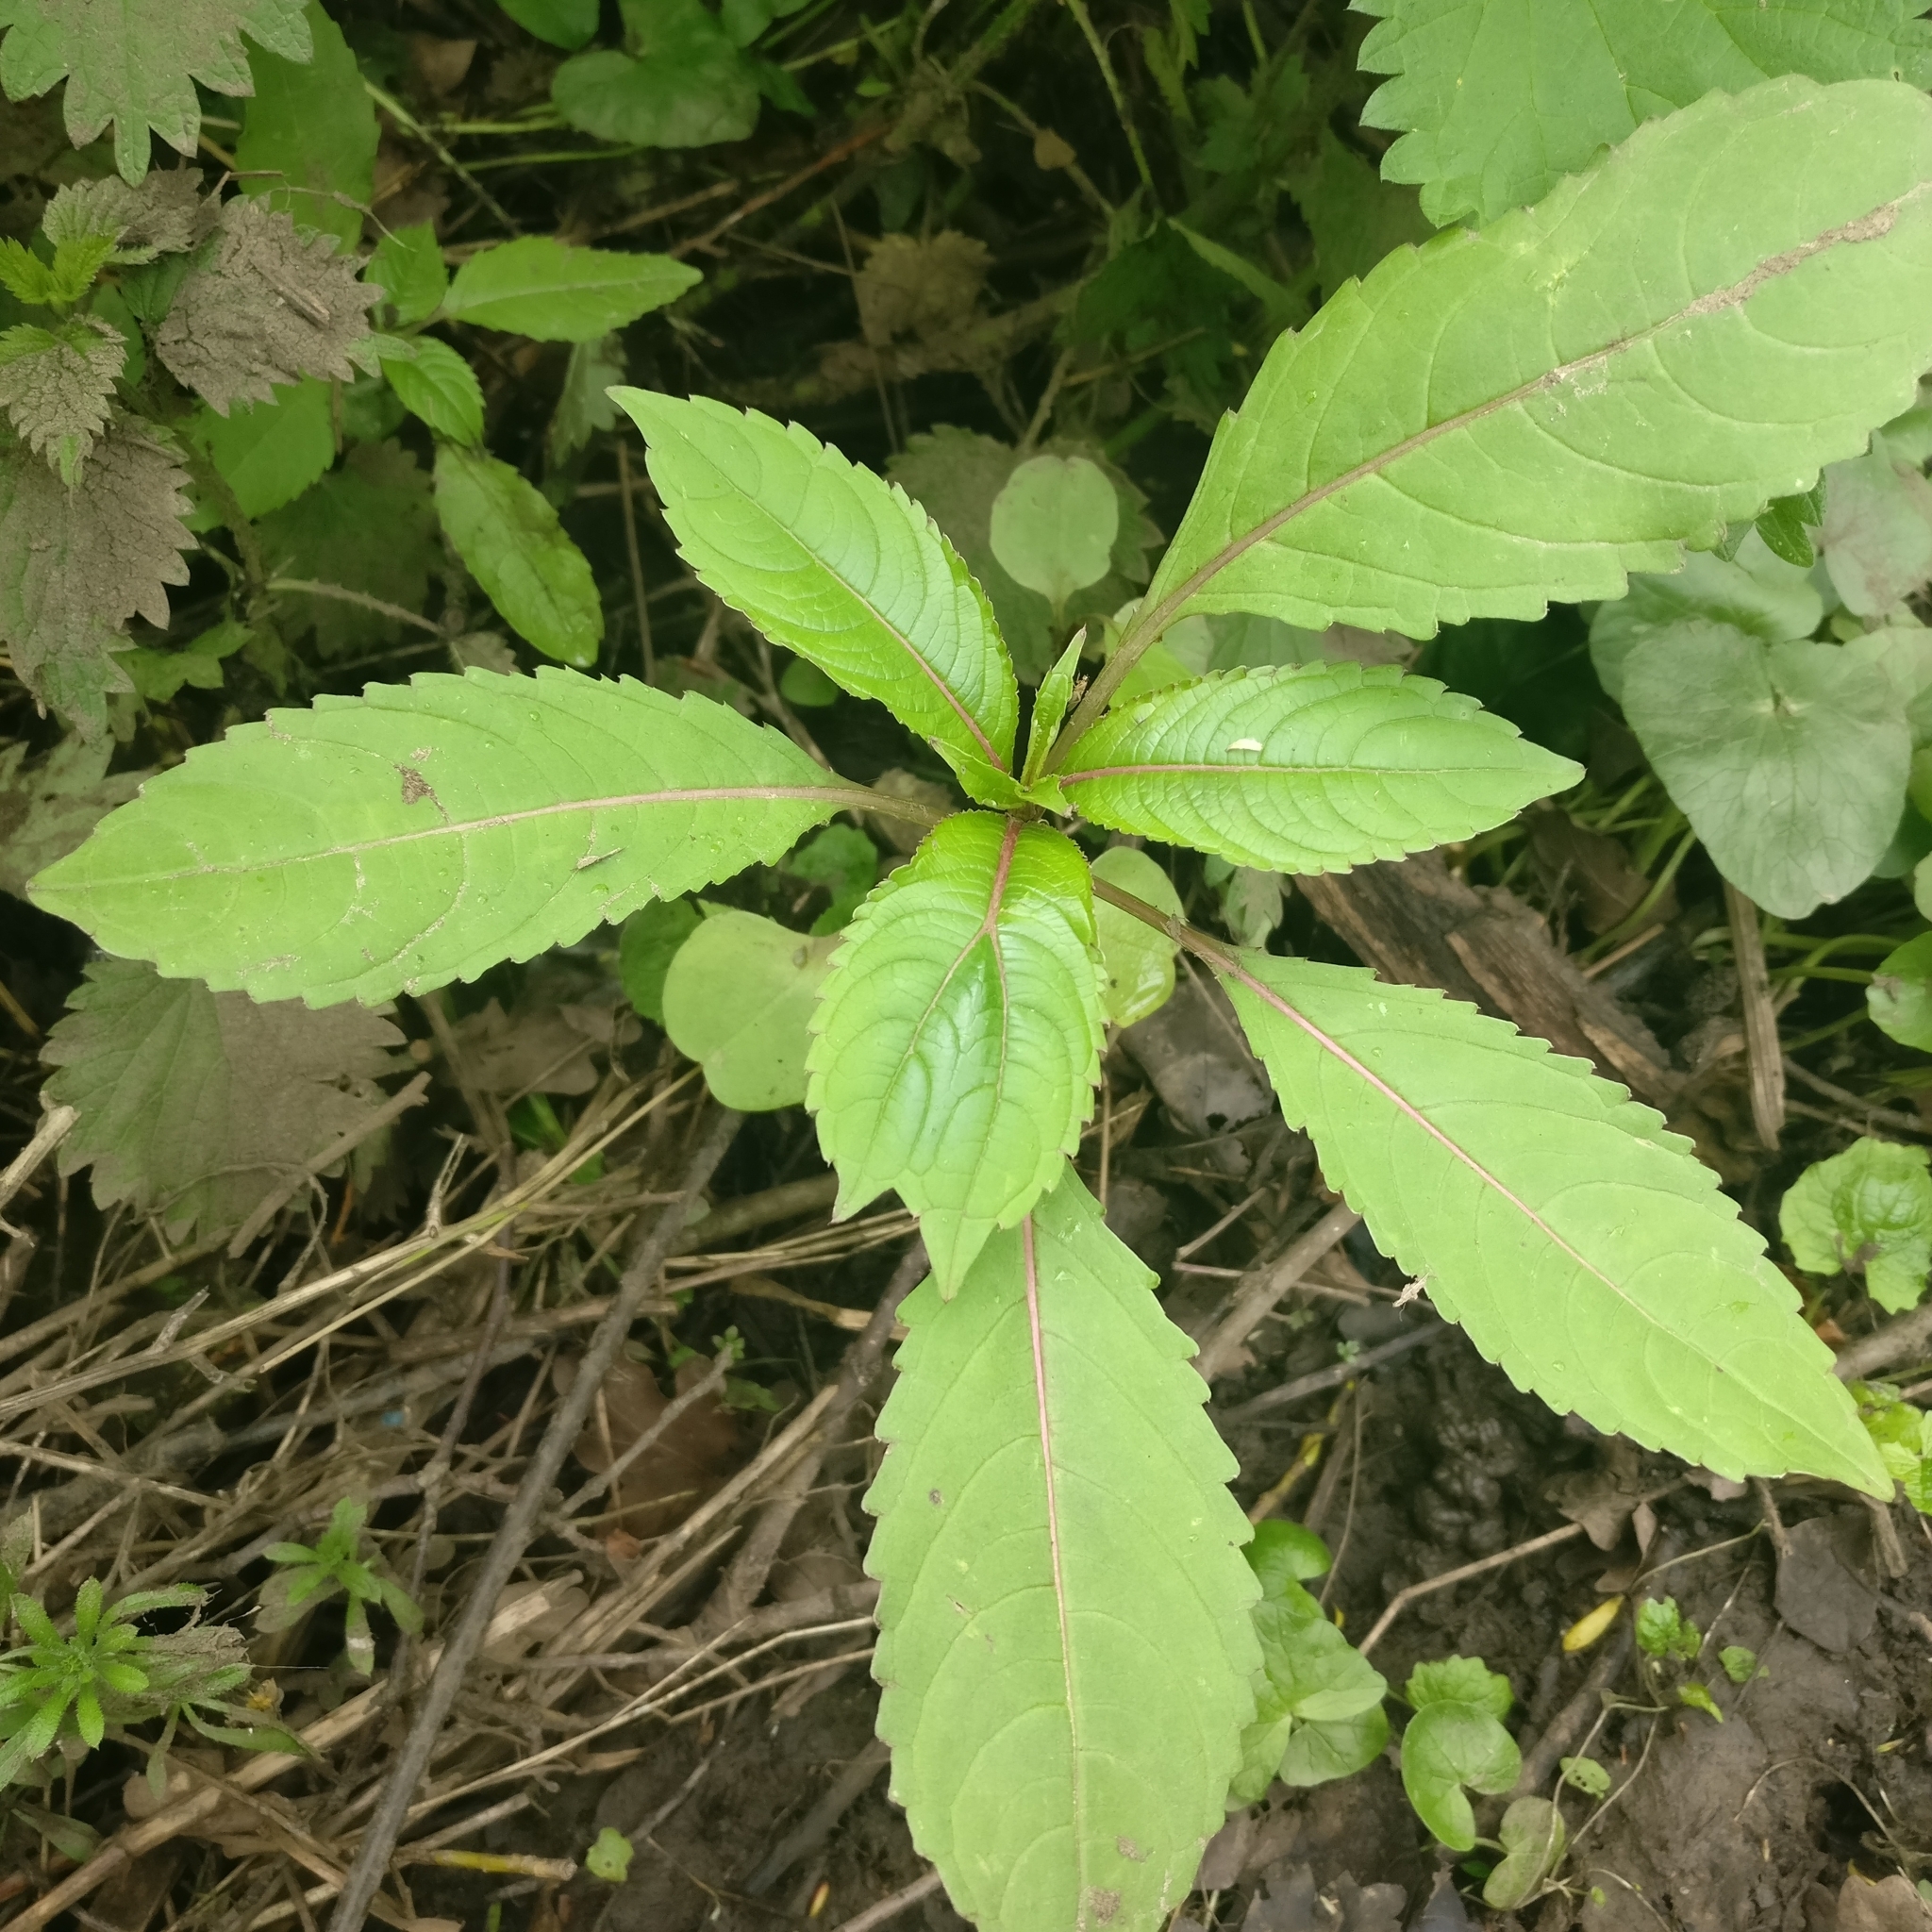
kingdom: Plantae
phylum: Tracheophyta
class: Magnoliopsida
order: Ericales
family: Balsaminaceae
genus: Impatiens
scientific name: Impatiens glandulifera
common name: Himalayan balsam
